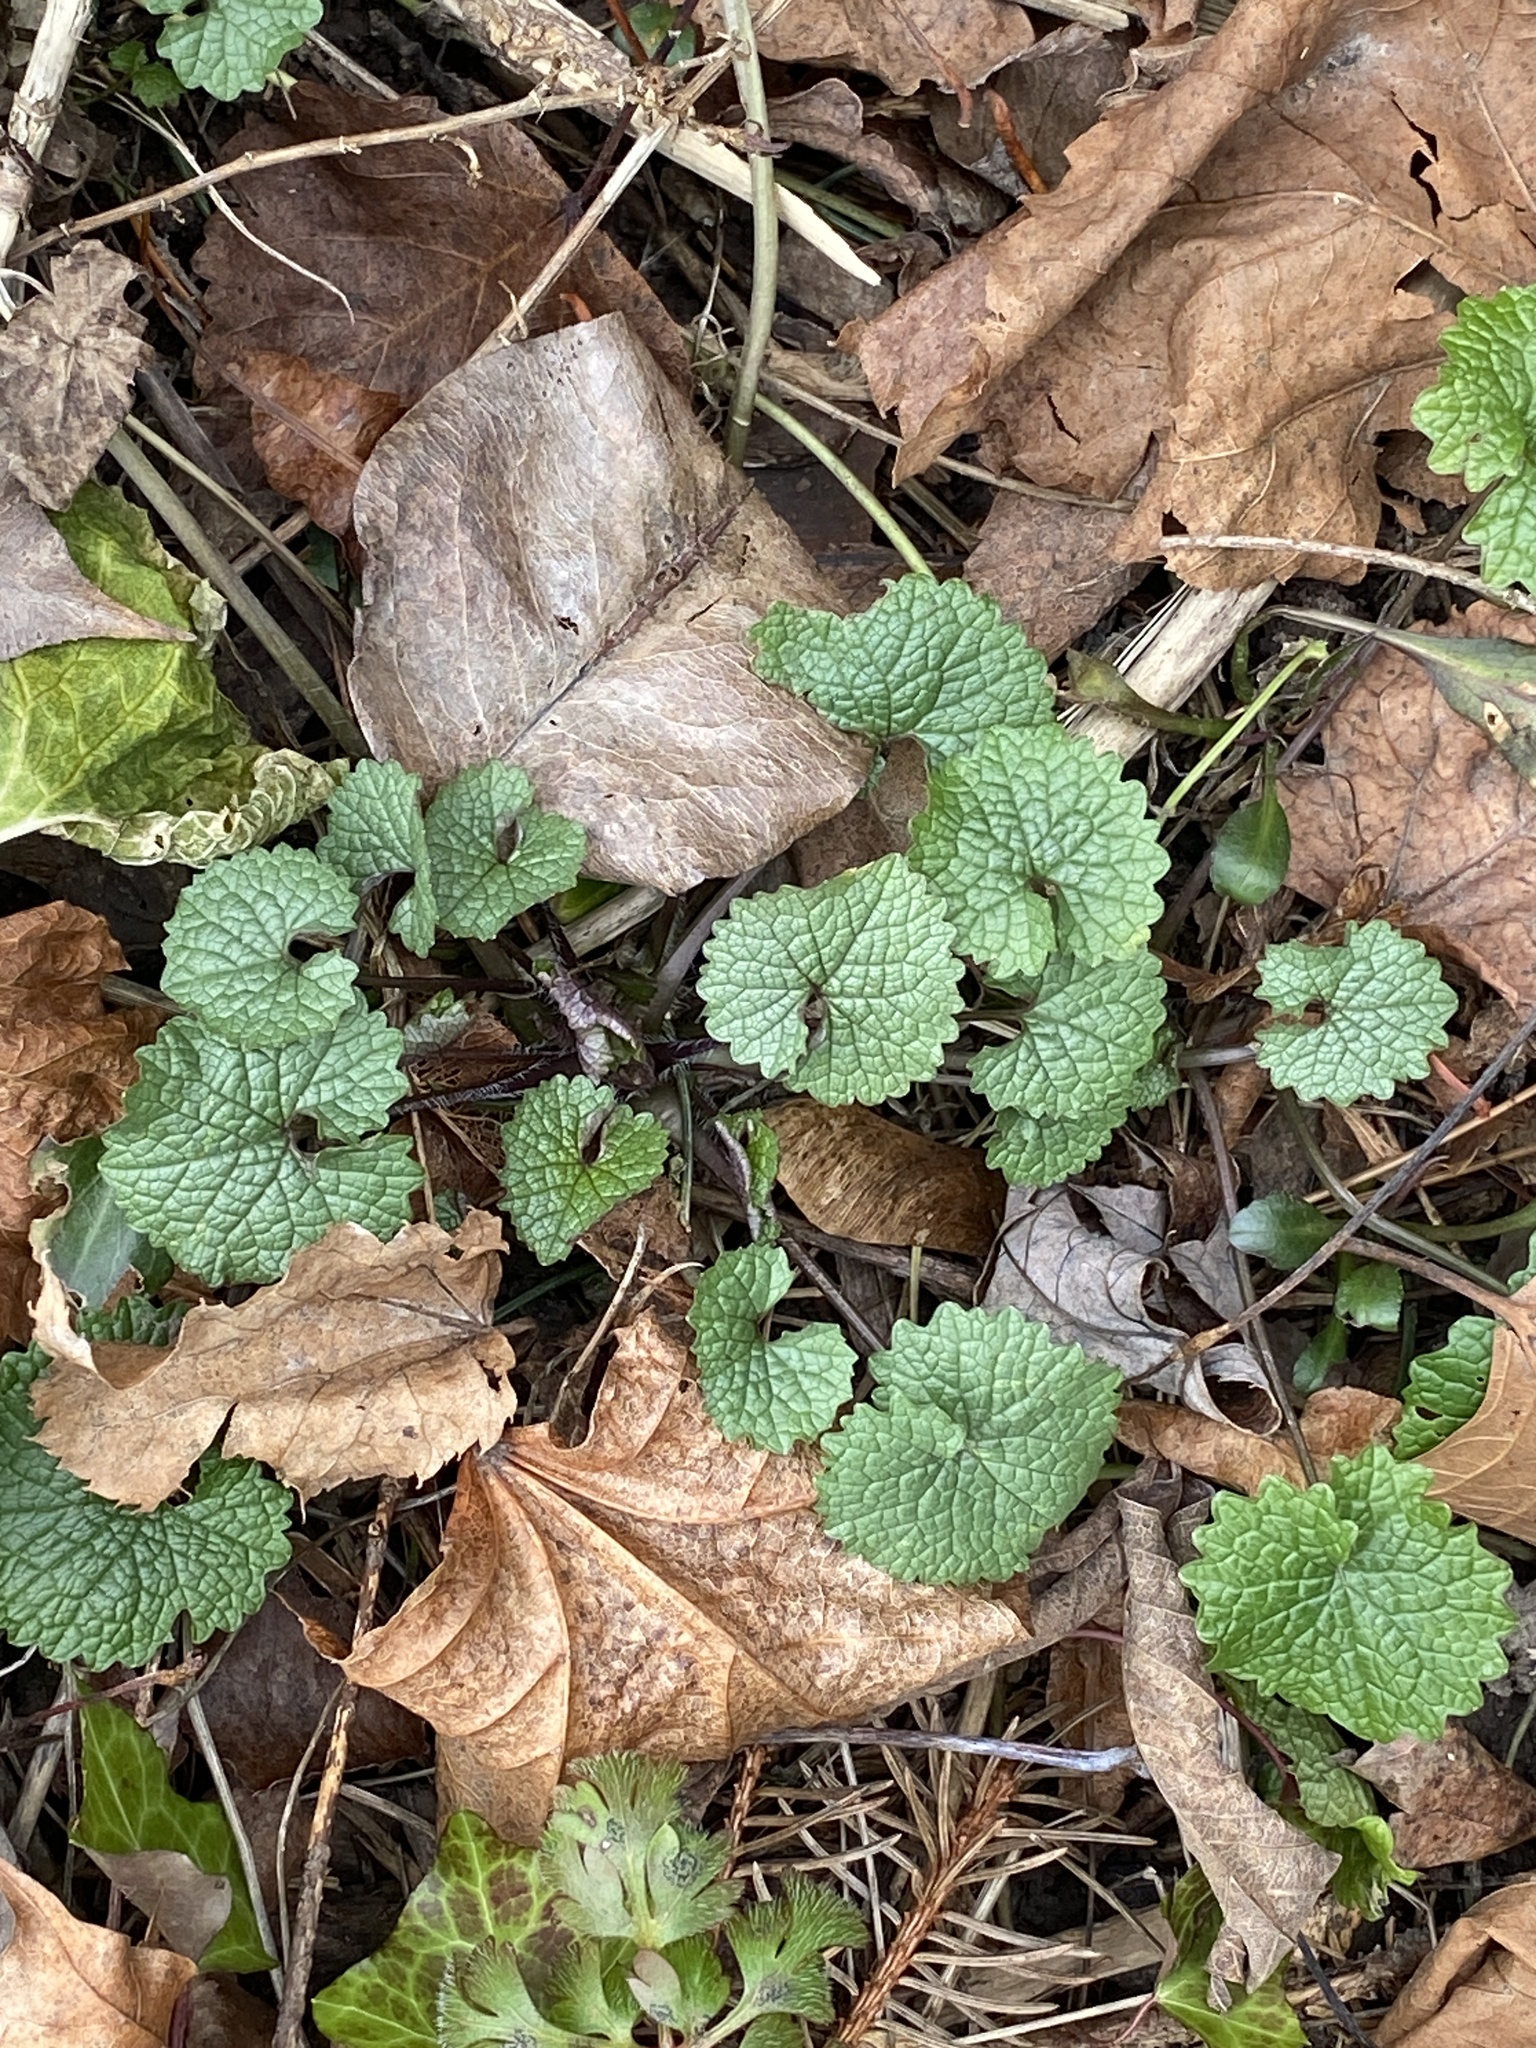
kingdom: Plantae
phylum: Tracheophyta
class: Magnoliopsida
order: Brassicales
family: Brassicaceae
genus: Alliaria
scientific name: Alliaria petiolata
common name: Garlic mustard
